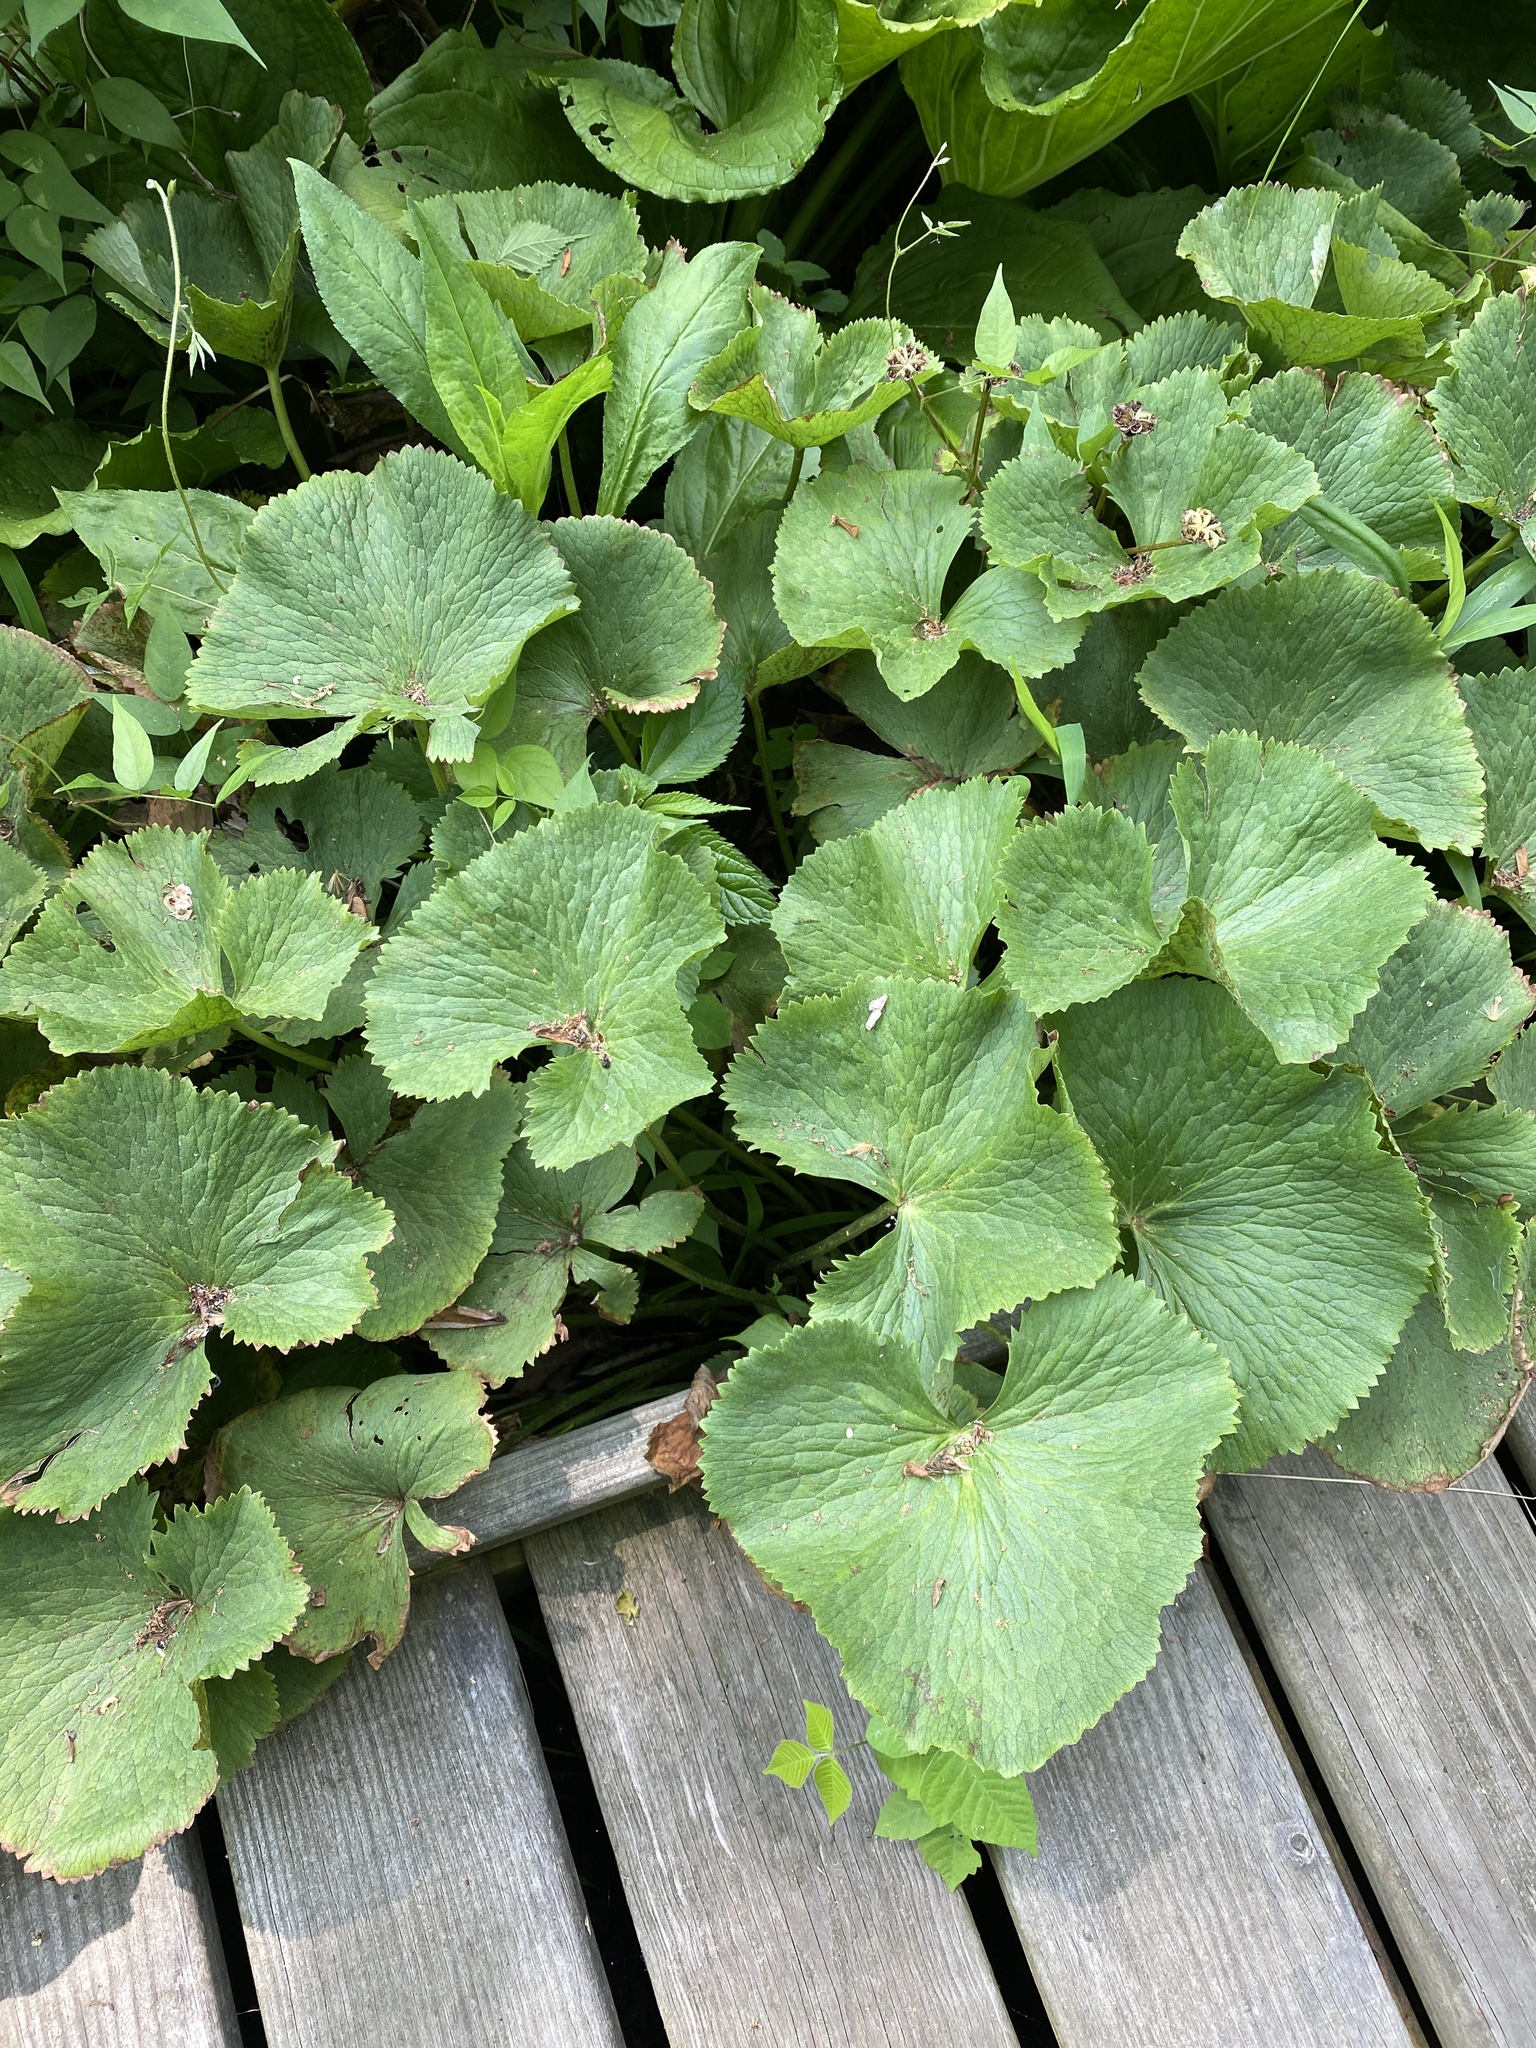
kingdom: Plantae
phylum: Tracheophyta
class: Magnoliopsida
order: Ranunculales
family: Ranunculaceae
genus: Caltha
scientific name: Caltha palustris
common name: Marsh marigold
